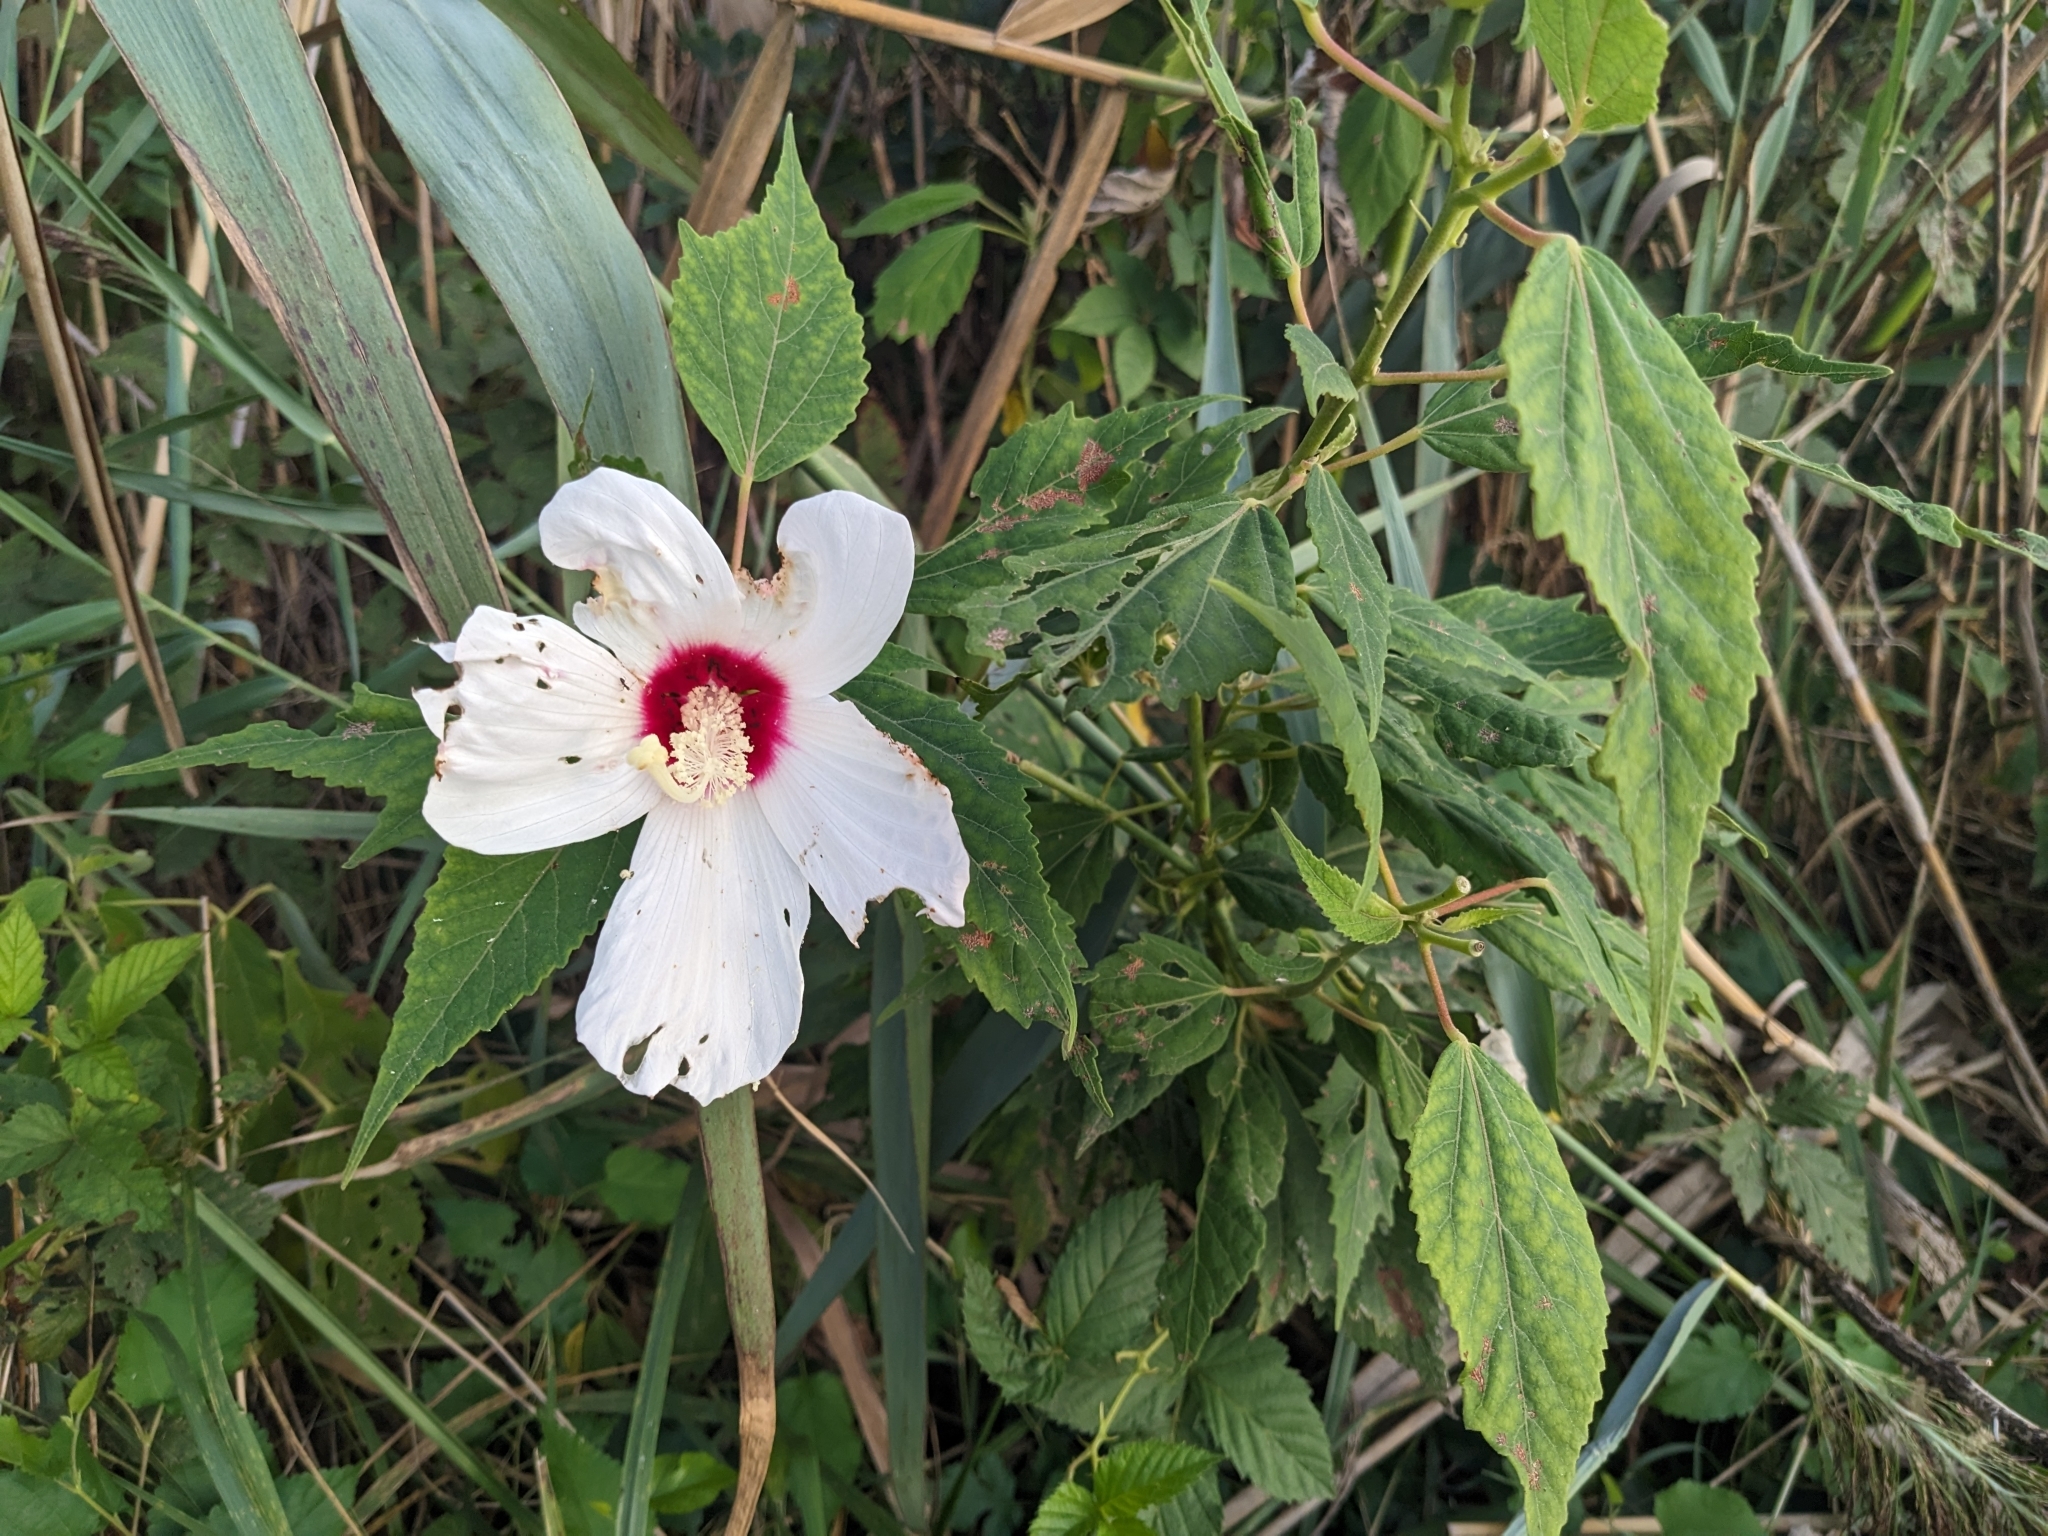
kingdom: Plantae
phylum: Tracheophyta
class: Magnoliopsida
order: Malvales
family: Malvaceae
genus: Hibiscus
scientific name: Hibiscus moscheutos
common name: Common rose-mallow
